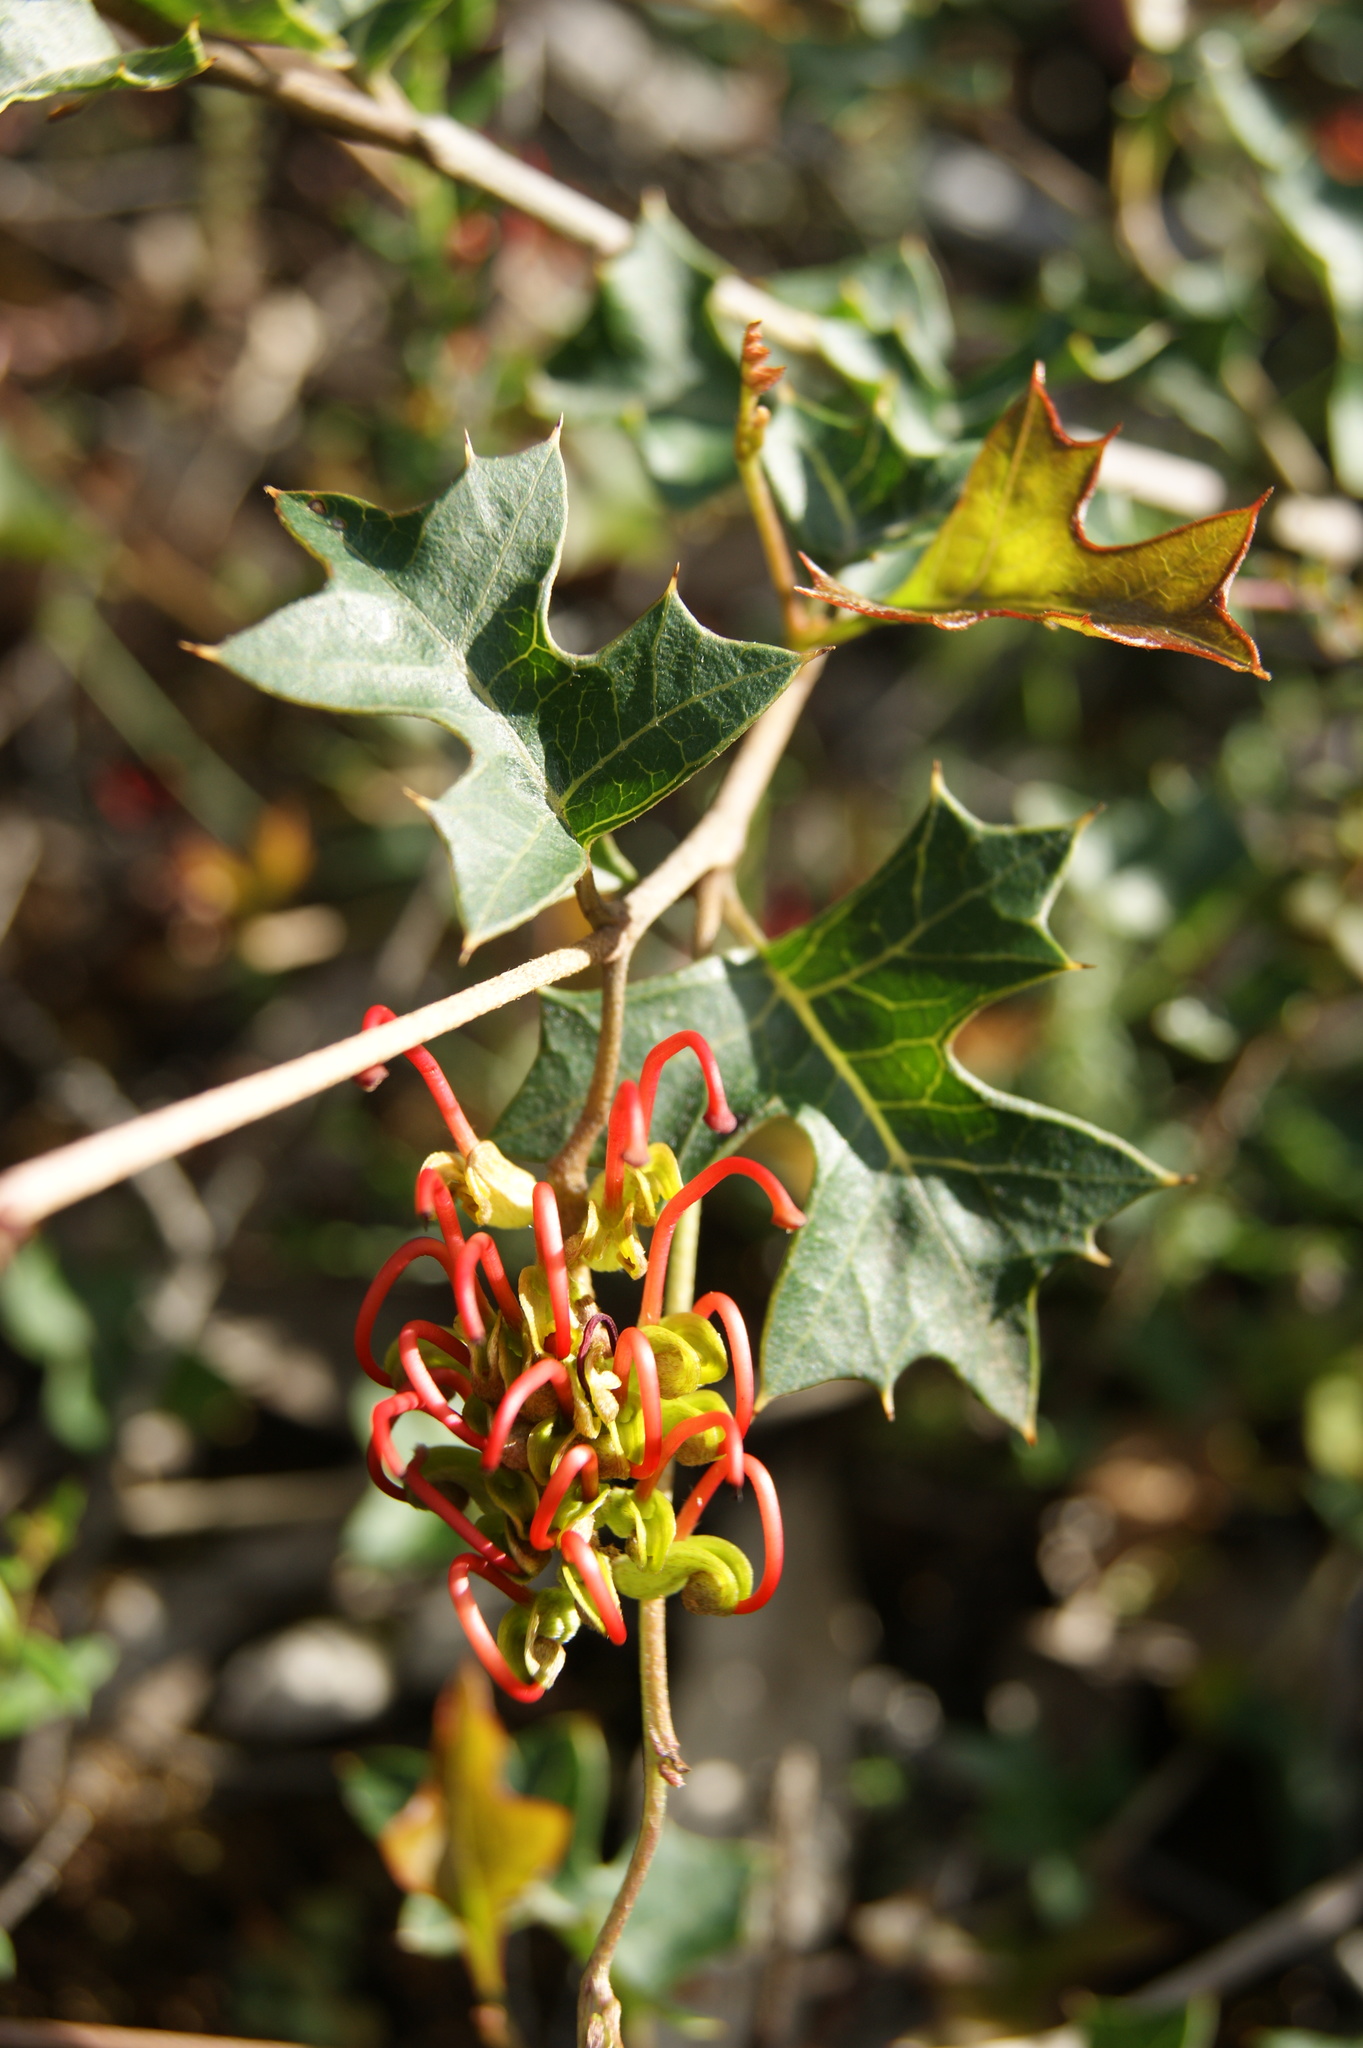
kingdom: Plantae
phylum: Tracheophyta
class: Magnoliopsida
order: Proteales
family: Proteaceae
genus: Grevillea
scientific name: Grevillea steiglitziana
